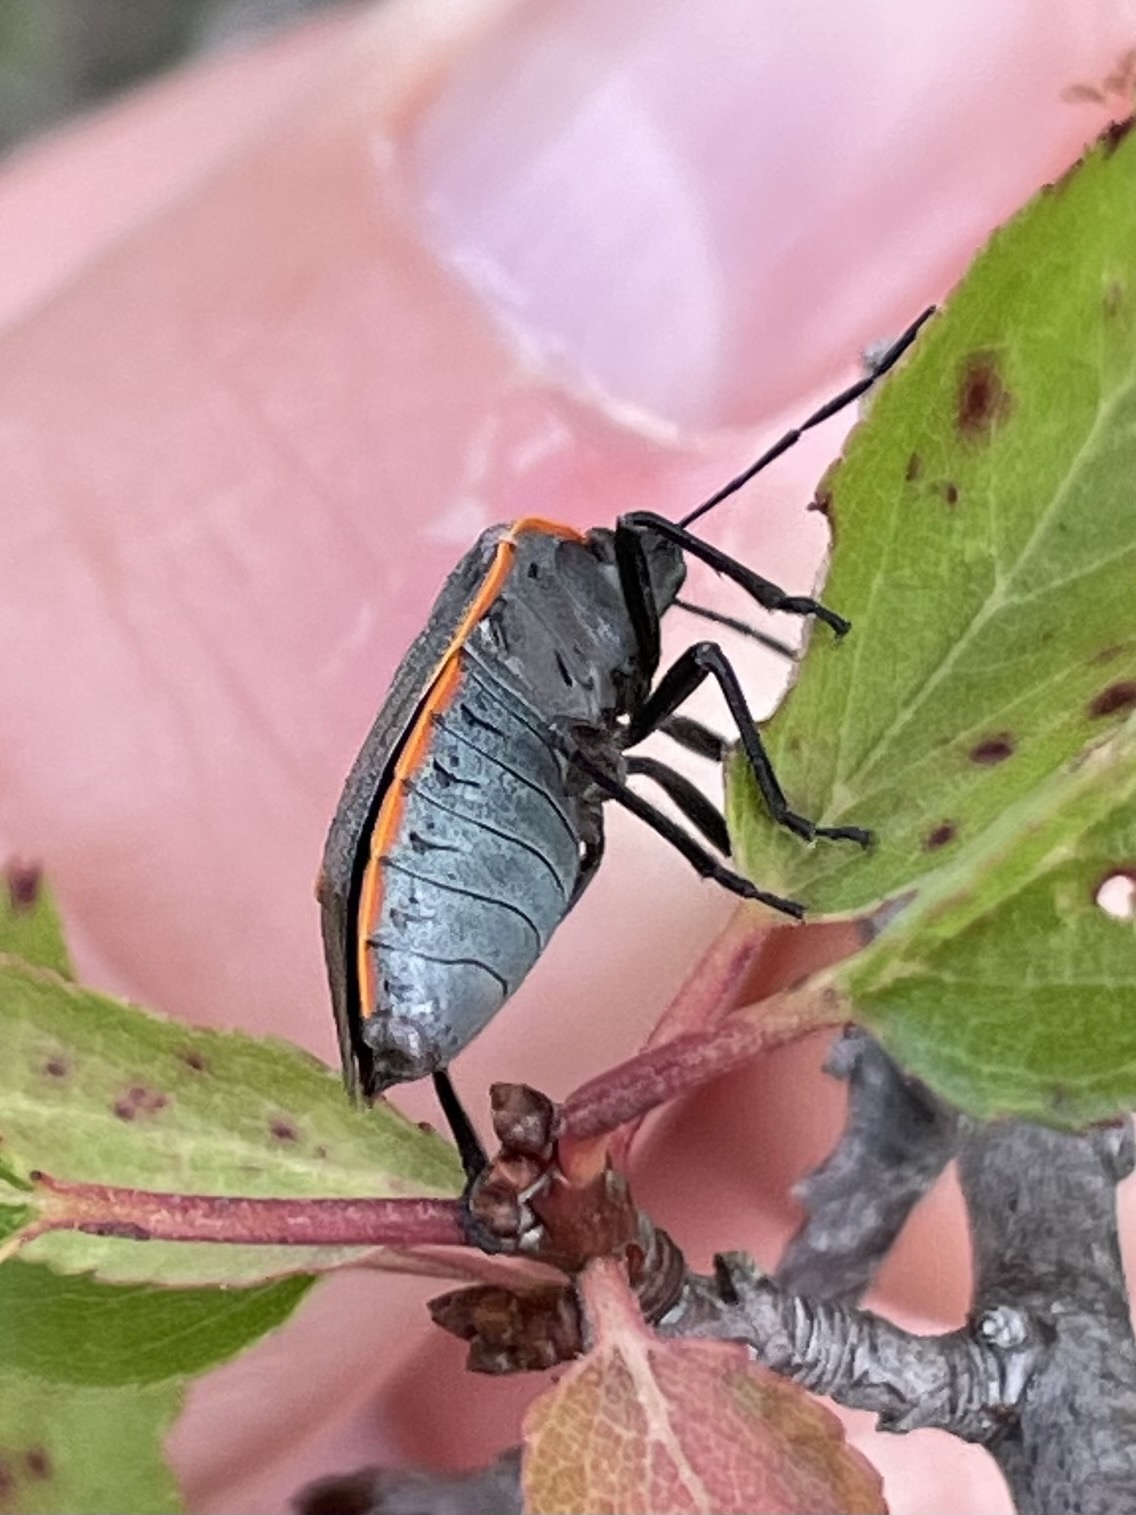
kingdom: Animalia
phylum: Arthropoda
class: Insecta
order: Hemiptera
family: Pentatomidae
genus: Chlorochroa
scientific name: Chlorochroa ligata
